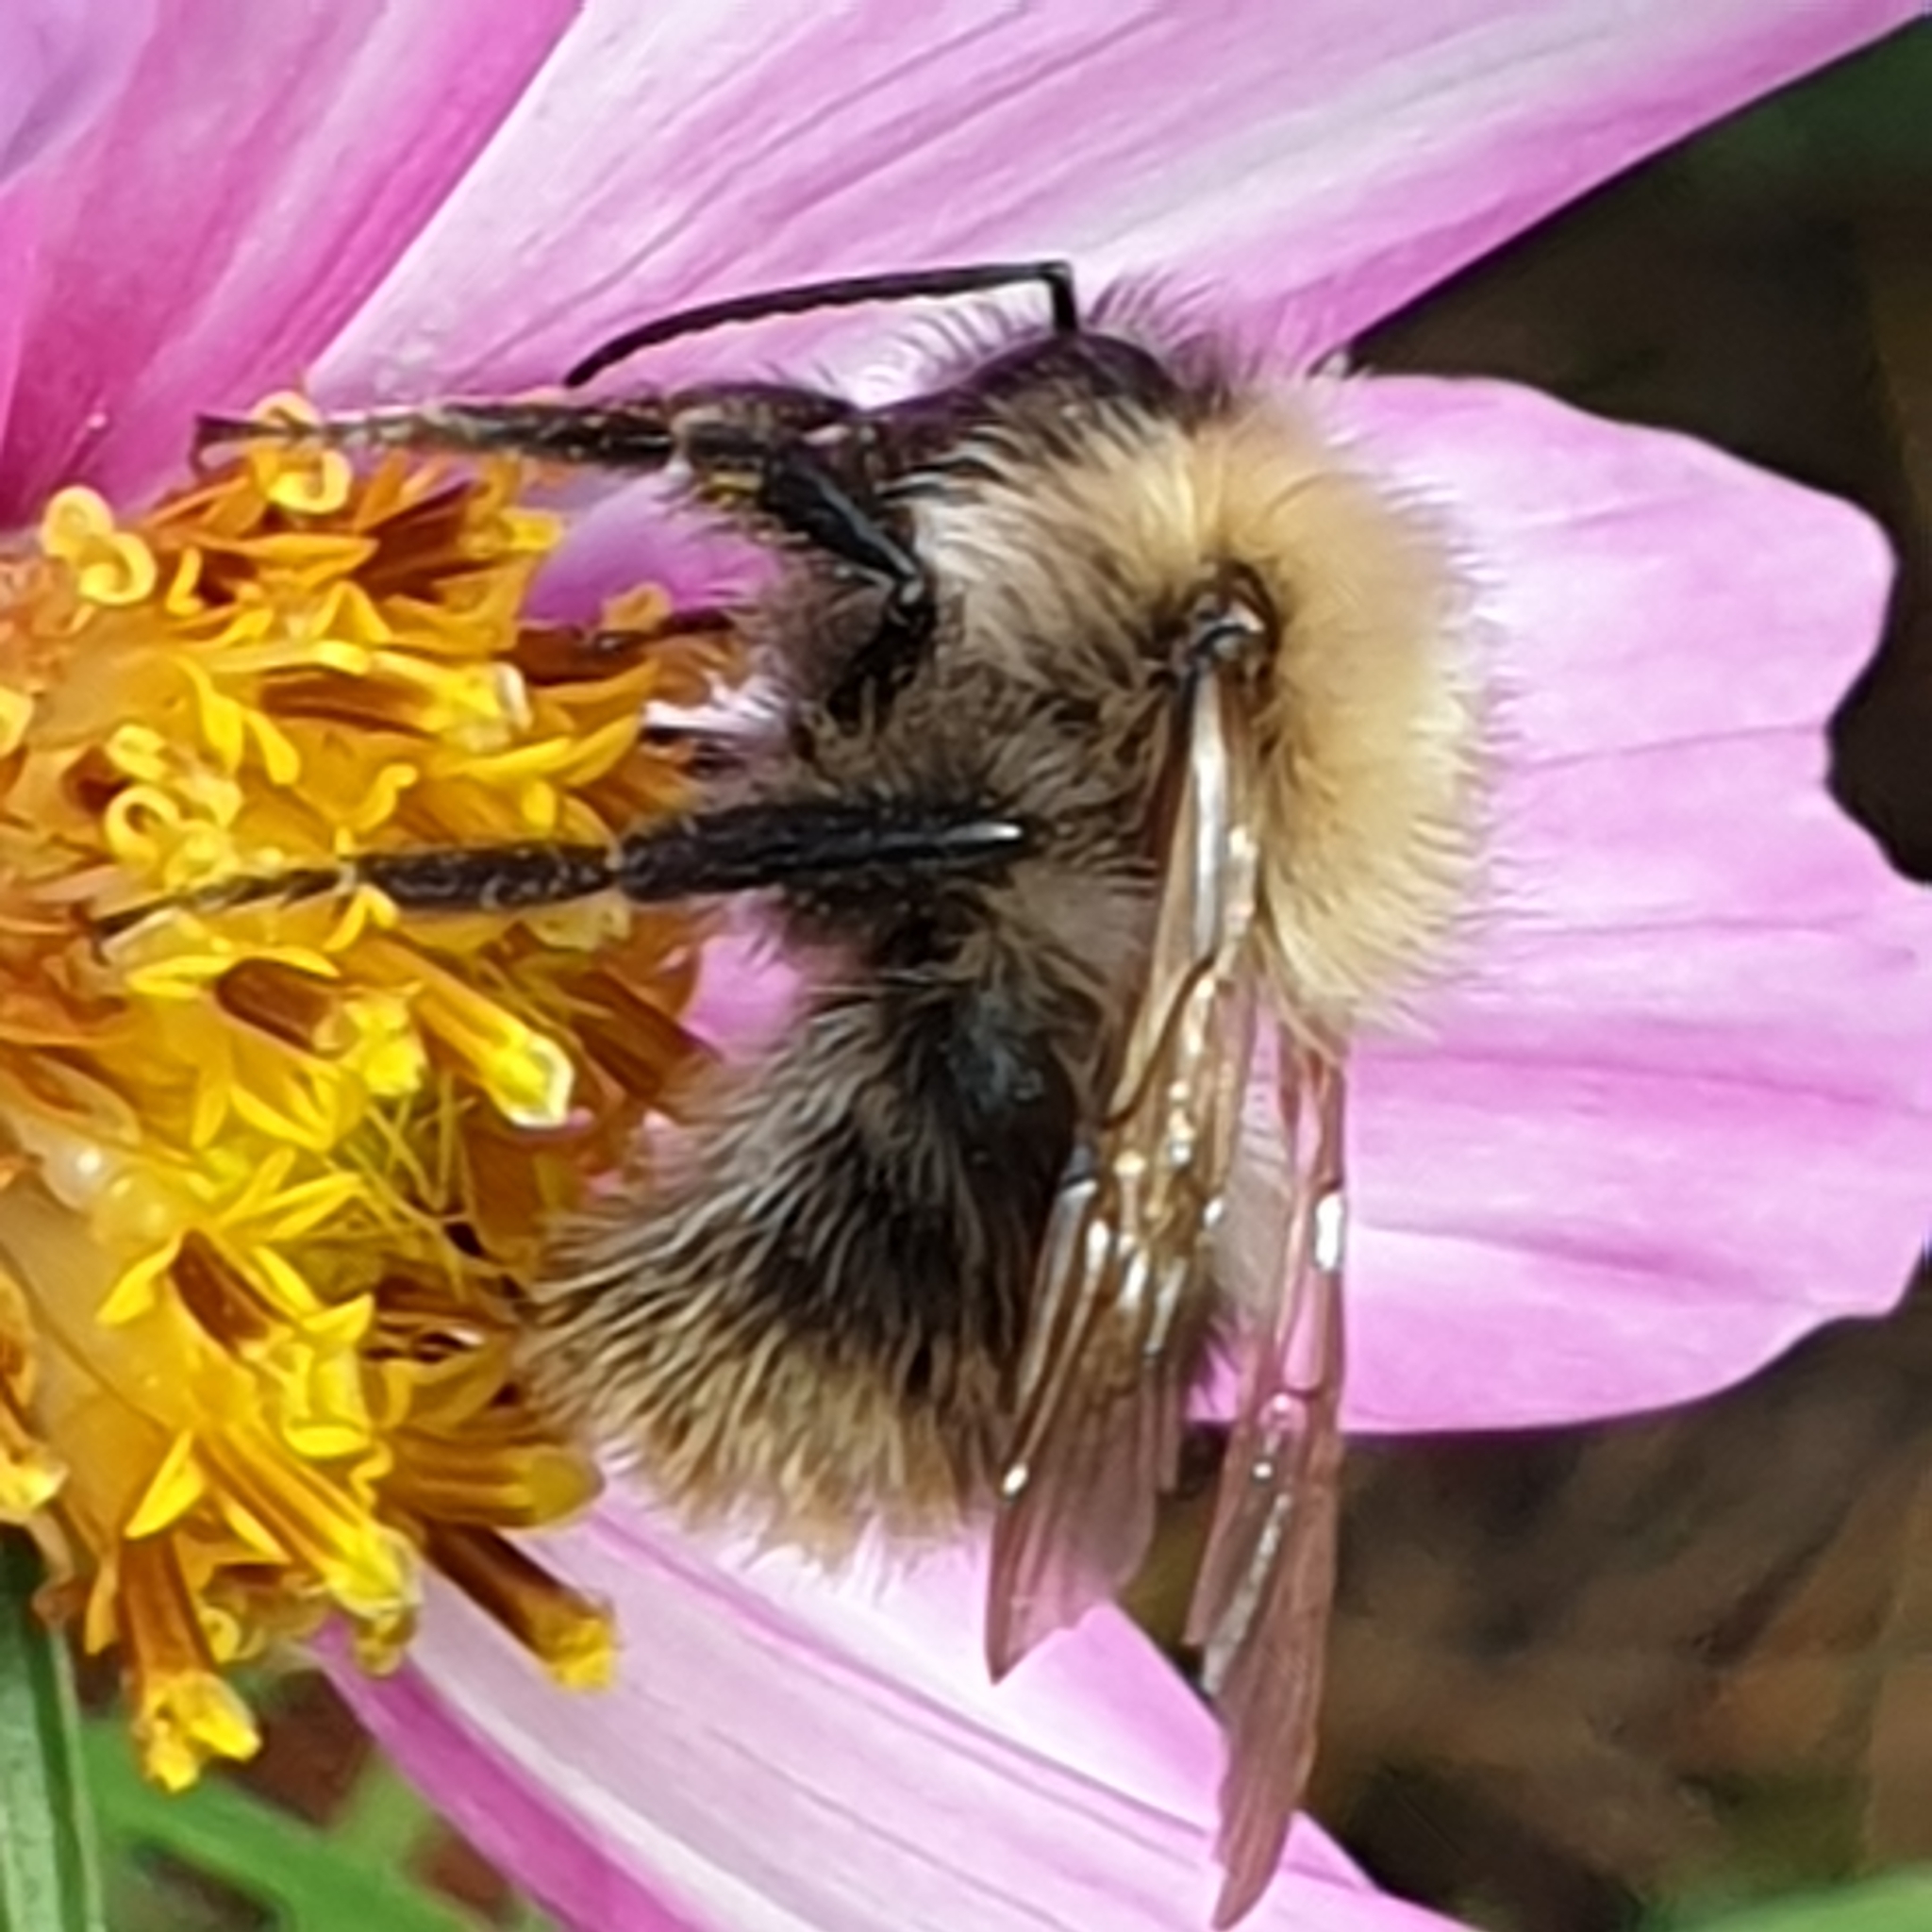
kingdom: Animalia
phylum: Arthropoda
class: Insecta
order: Hymenoptera
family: Apidae
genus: Bombus
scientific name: Bombus pascuorum
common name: Common carder bee
